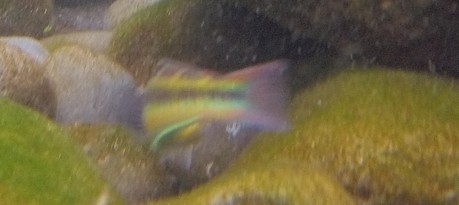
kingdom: Animalia
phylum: Chordata
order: Perciformes
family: Labridae
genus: Thalassoma
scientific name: Thalassoma pavo
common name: Ornate wrasse
